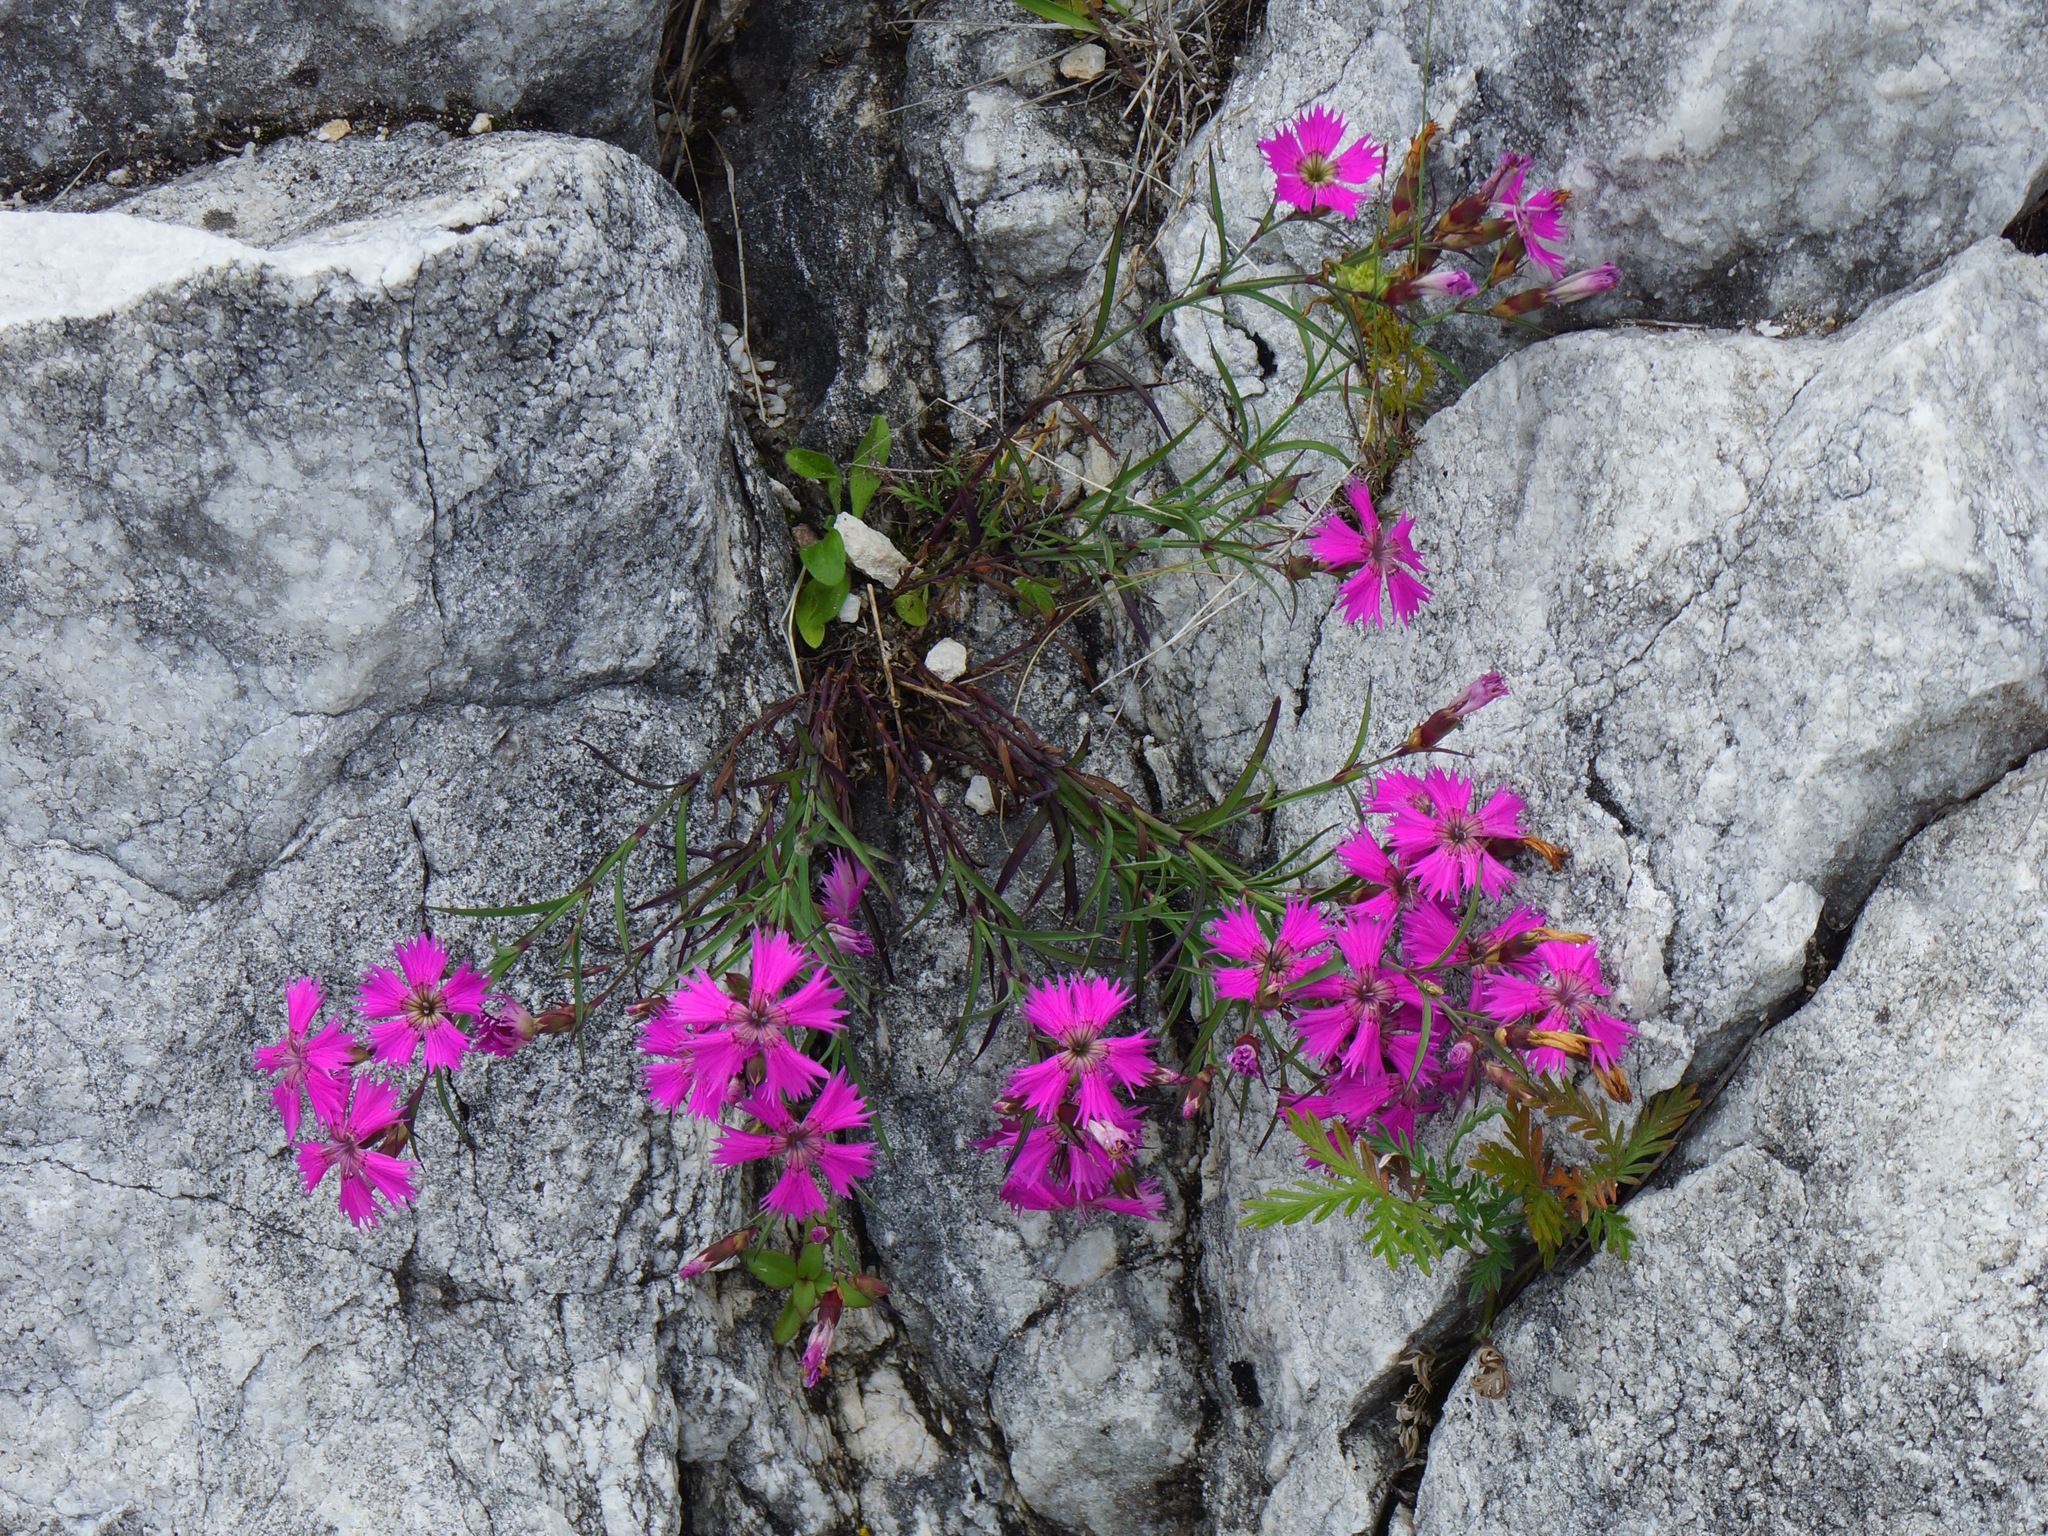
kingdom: Plantae
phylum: Tracheophyta
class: Magnoliopsida
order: Caryophyllales
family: Caryophyllaceae
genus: Dianthus
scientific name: Dianthus chinensis
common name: Rainbow pink
